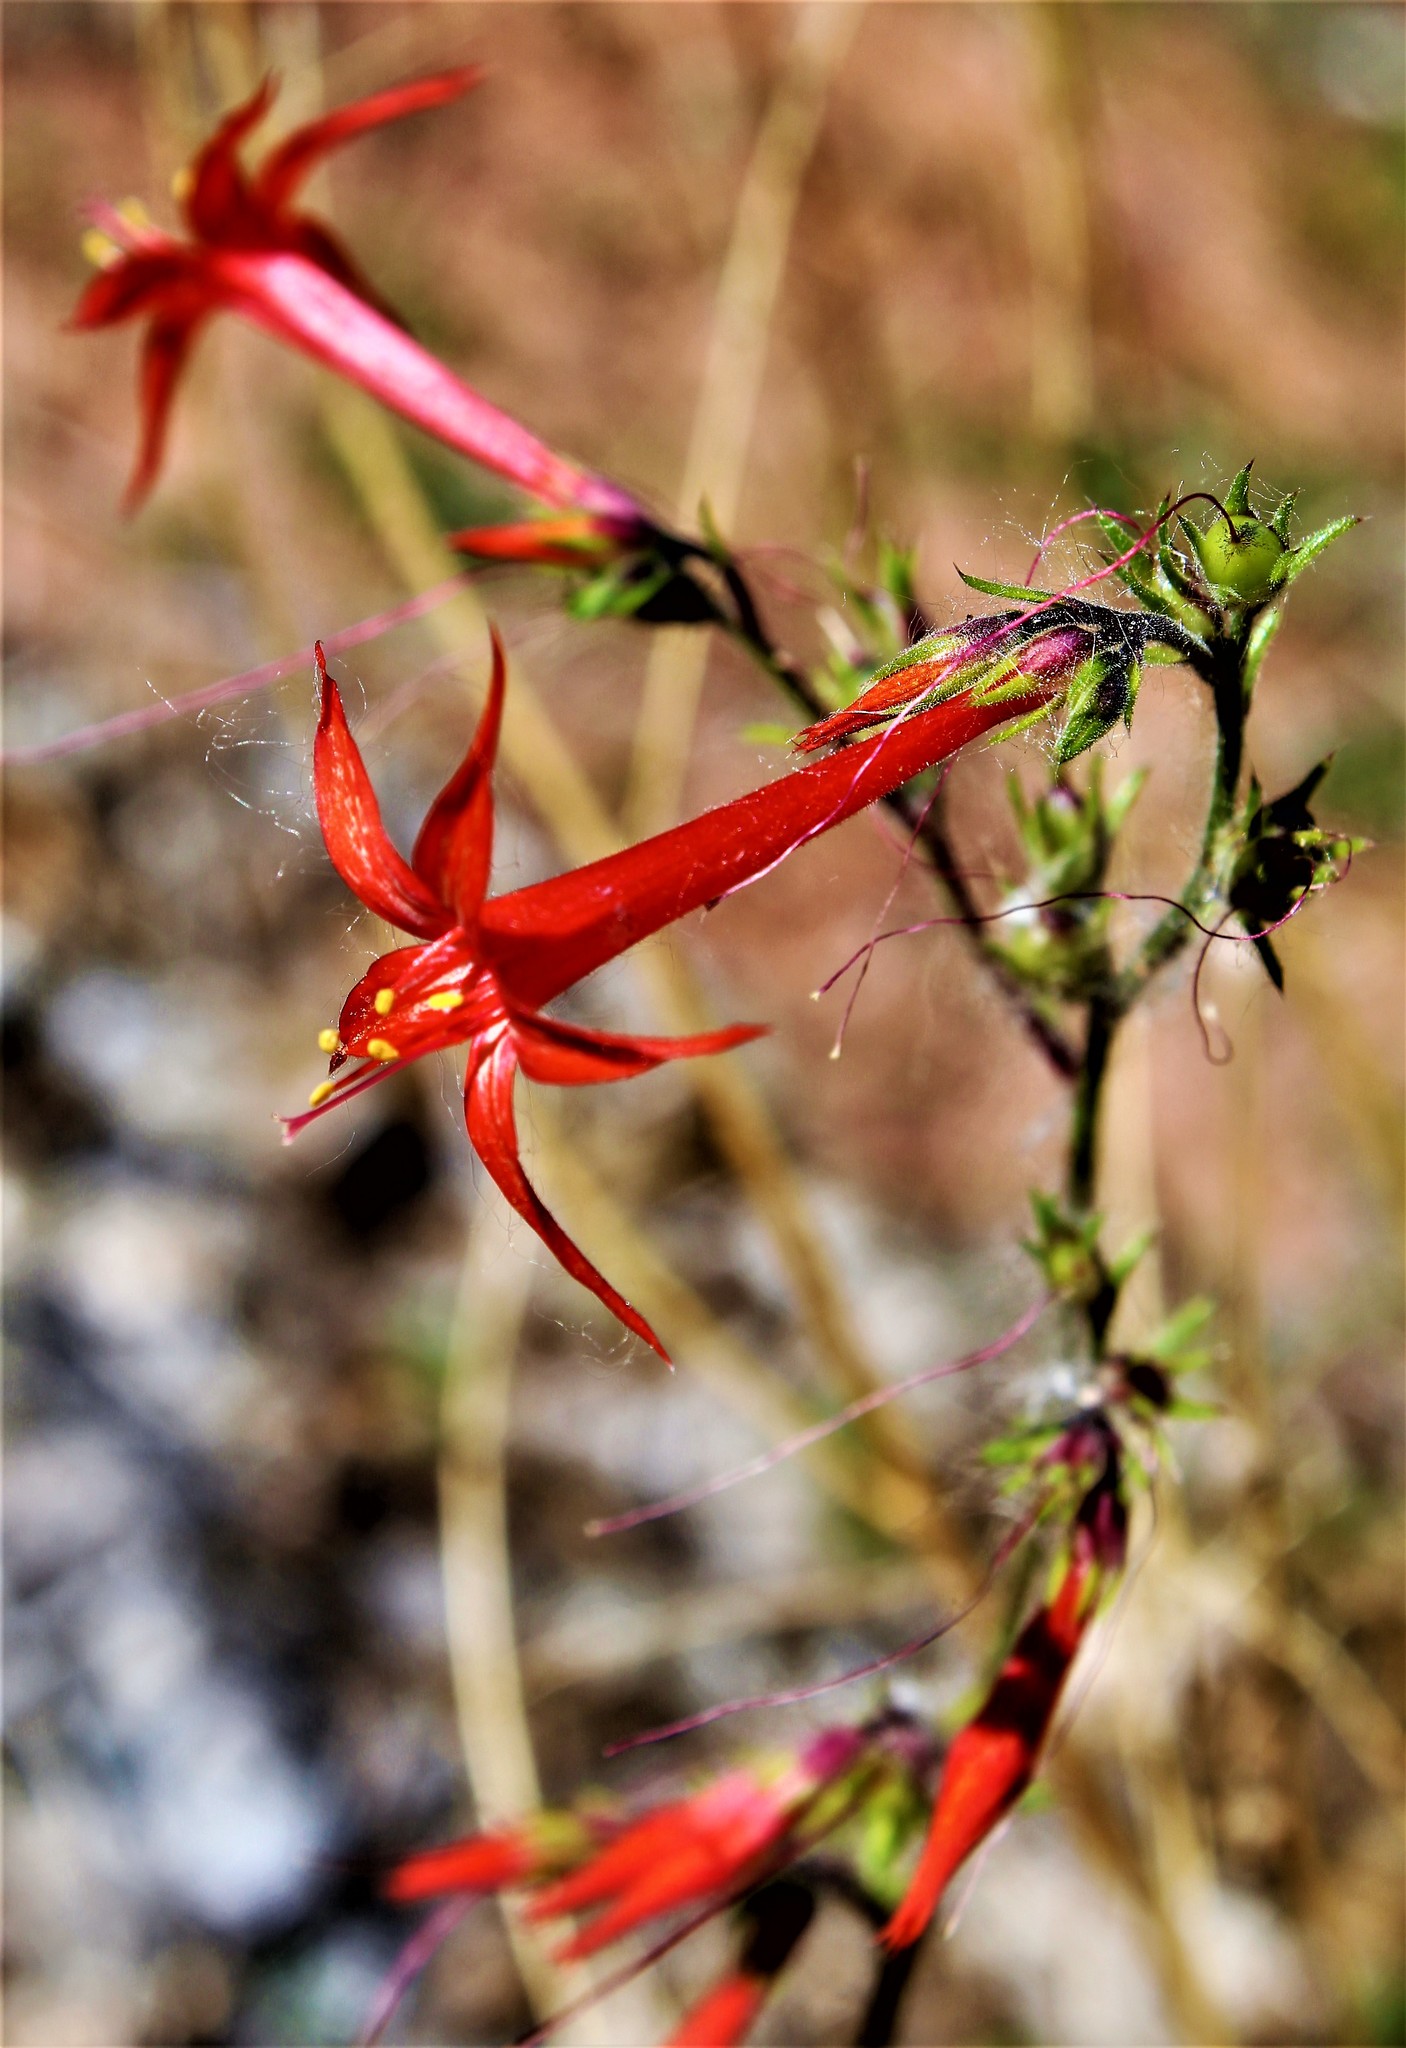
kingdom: Plantae
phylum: Tracheophyta
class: Magnoliopsida
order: Ericales
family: Polemoniaceae
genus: Ipomopsis
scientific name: Ipomopsis aggregata
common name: Scarlet gilia
